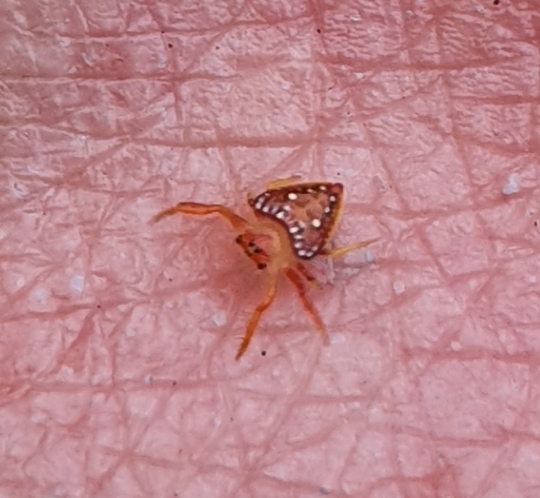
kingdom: Animalia
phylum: Arthropoda
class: Arachnida
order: Araneae
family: Arkyidae
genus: Arkys
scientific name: Arkys lancearius
